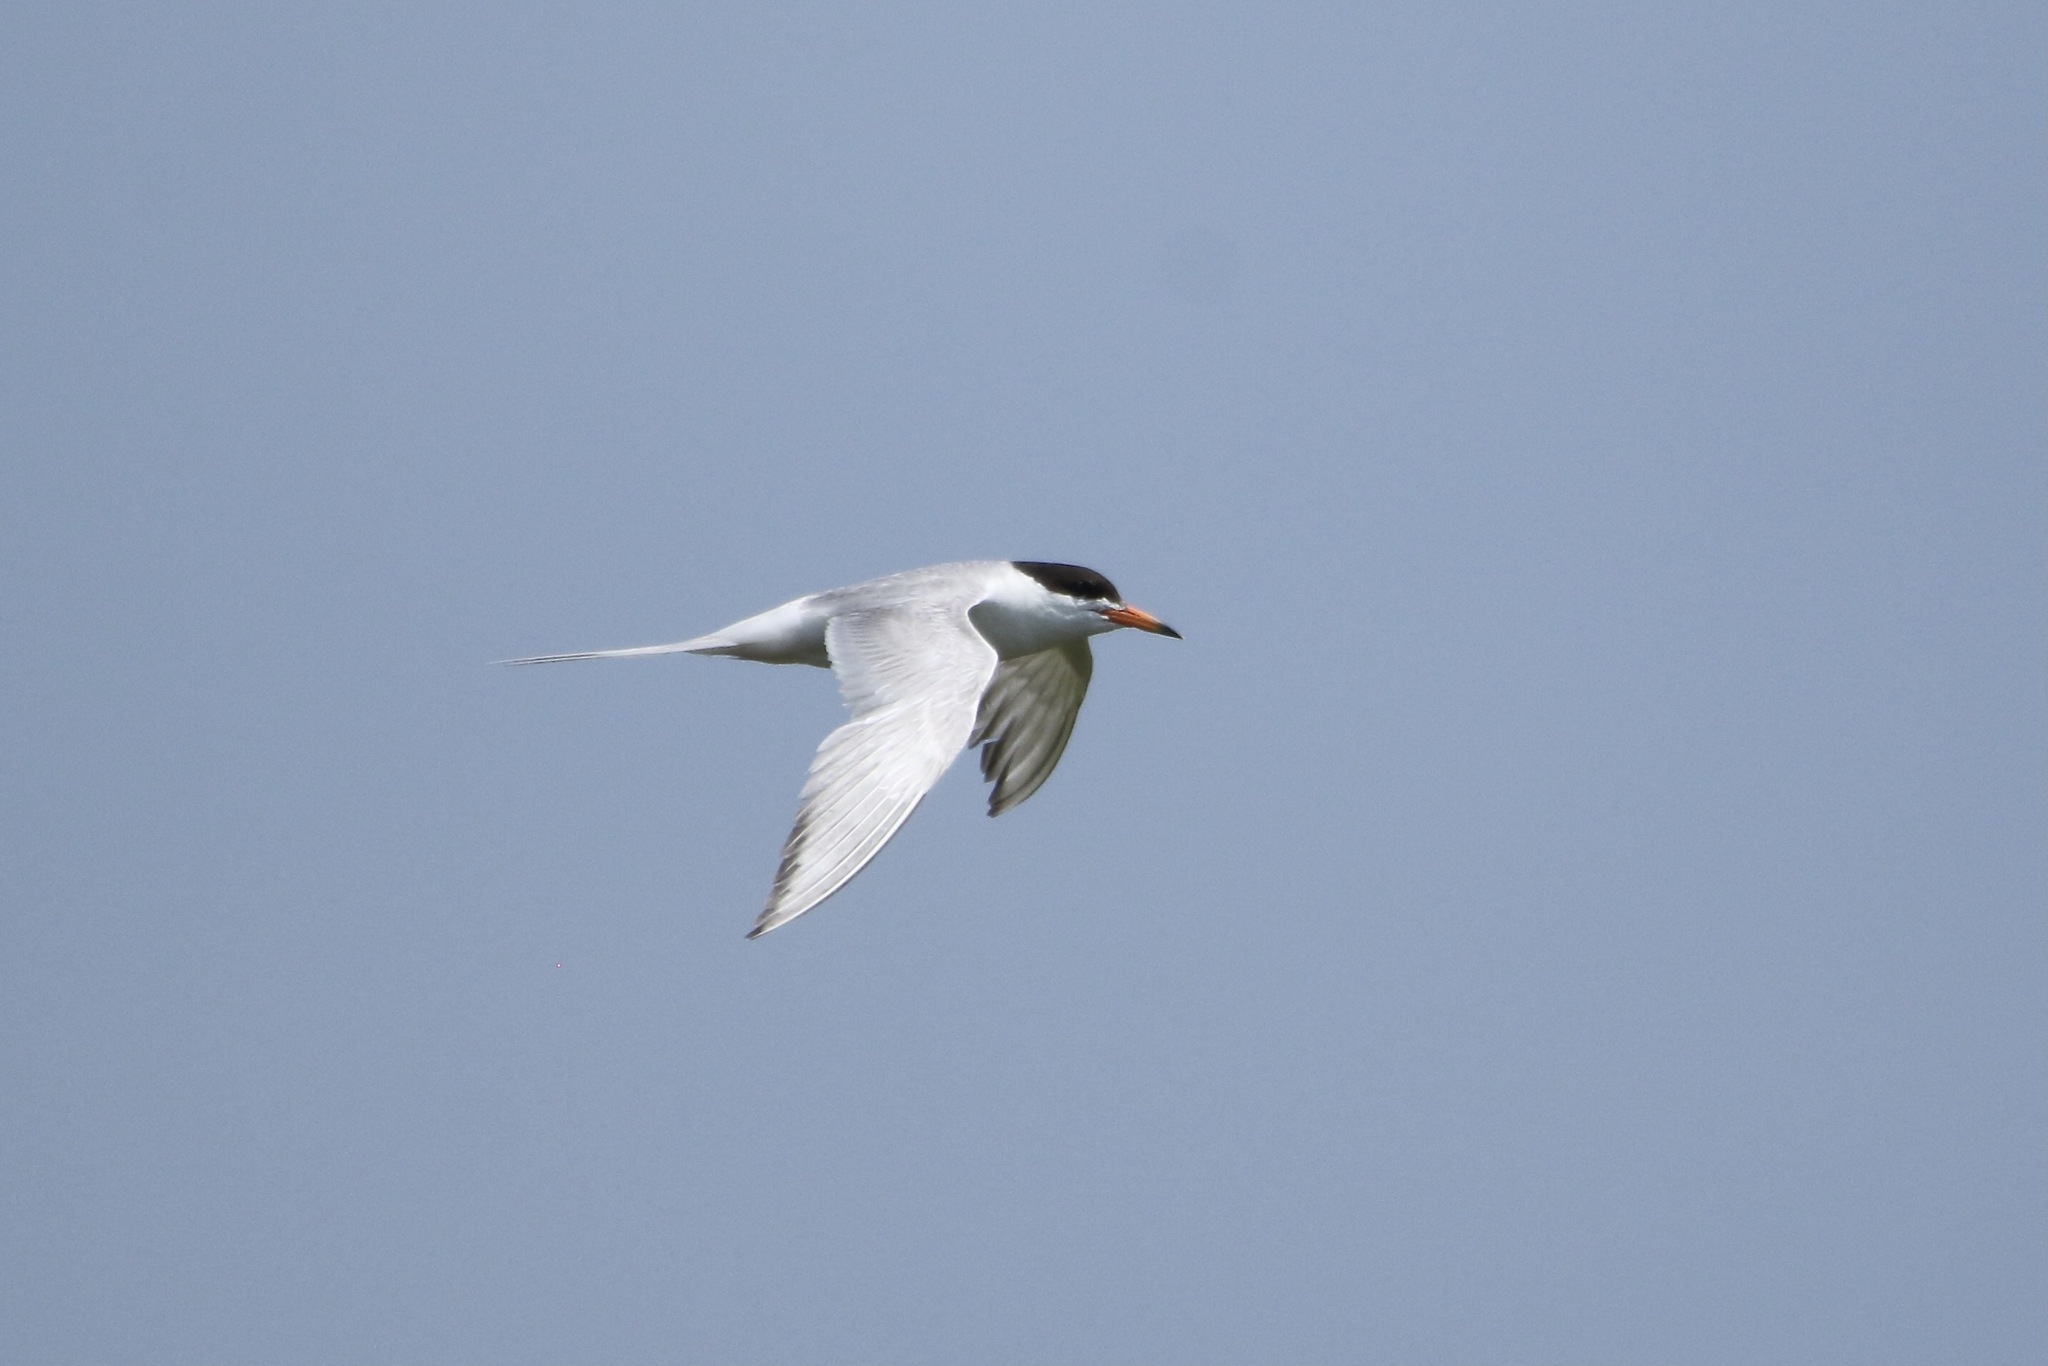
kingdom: Animalia
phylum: Chordata
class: Aves
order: Charadriiformes
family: Laridae
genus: Sterna
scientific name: Sterna forsteri
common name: Forster's tern
